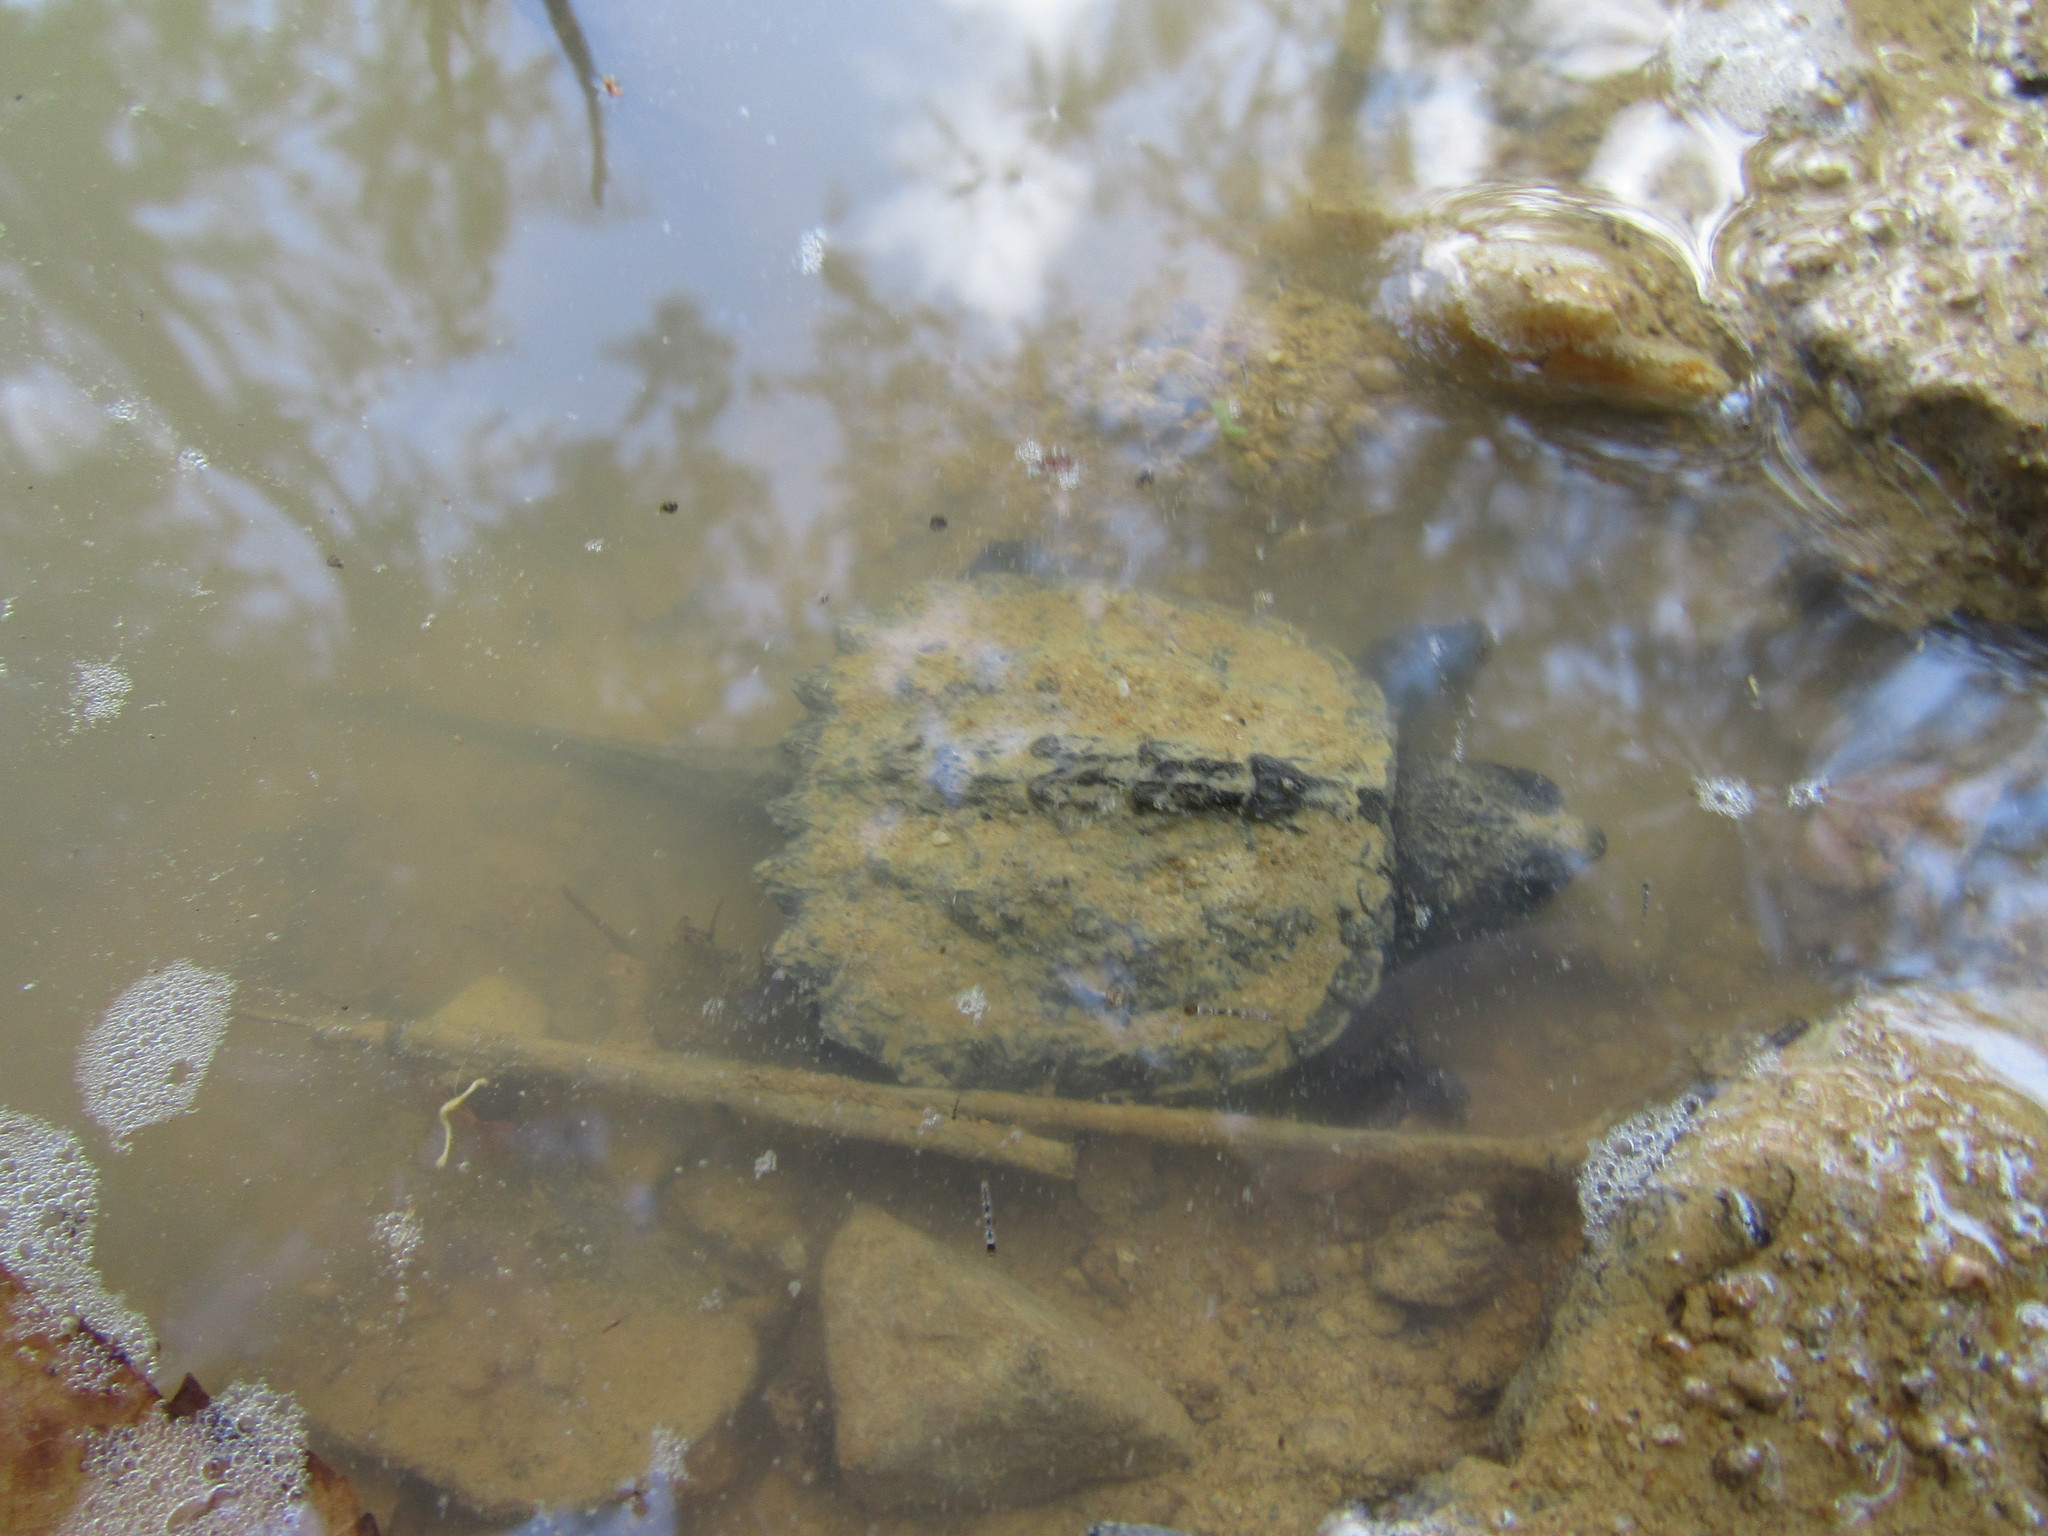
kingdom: Animalia
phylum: Chordata
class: Testudines
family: Chelydridae
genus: Chelydra
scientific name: Chelydra serpentina
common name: Common snapping turtle
